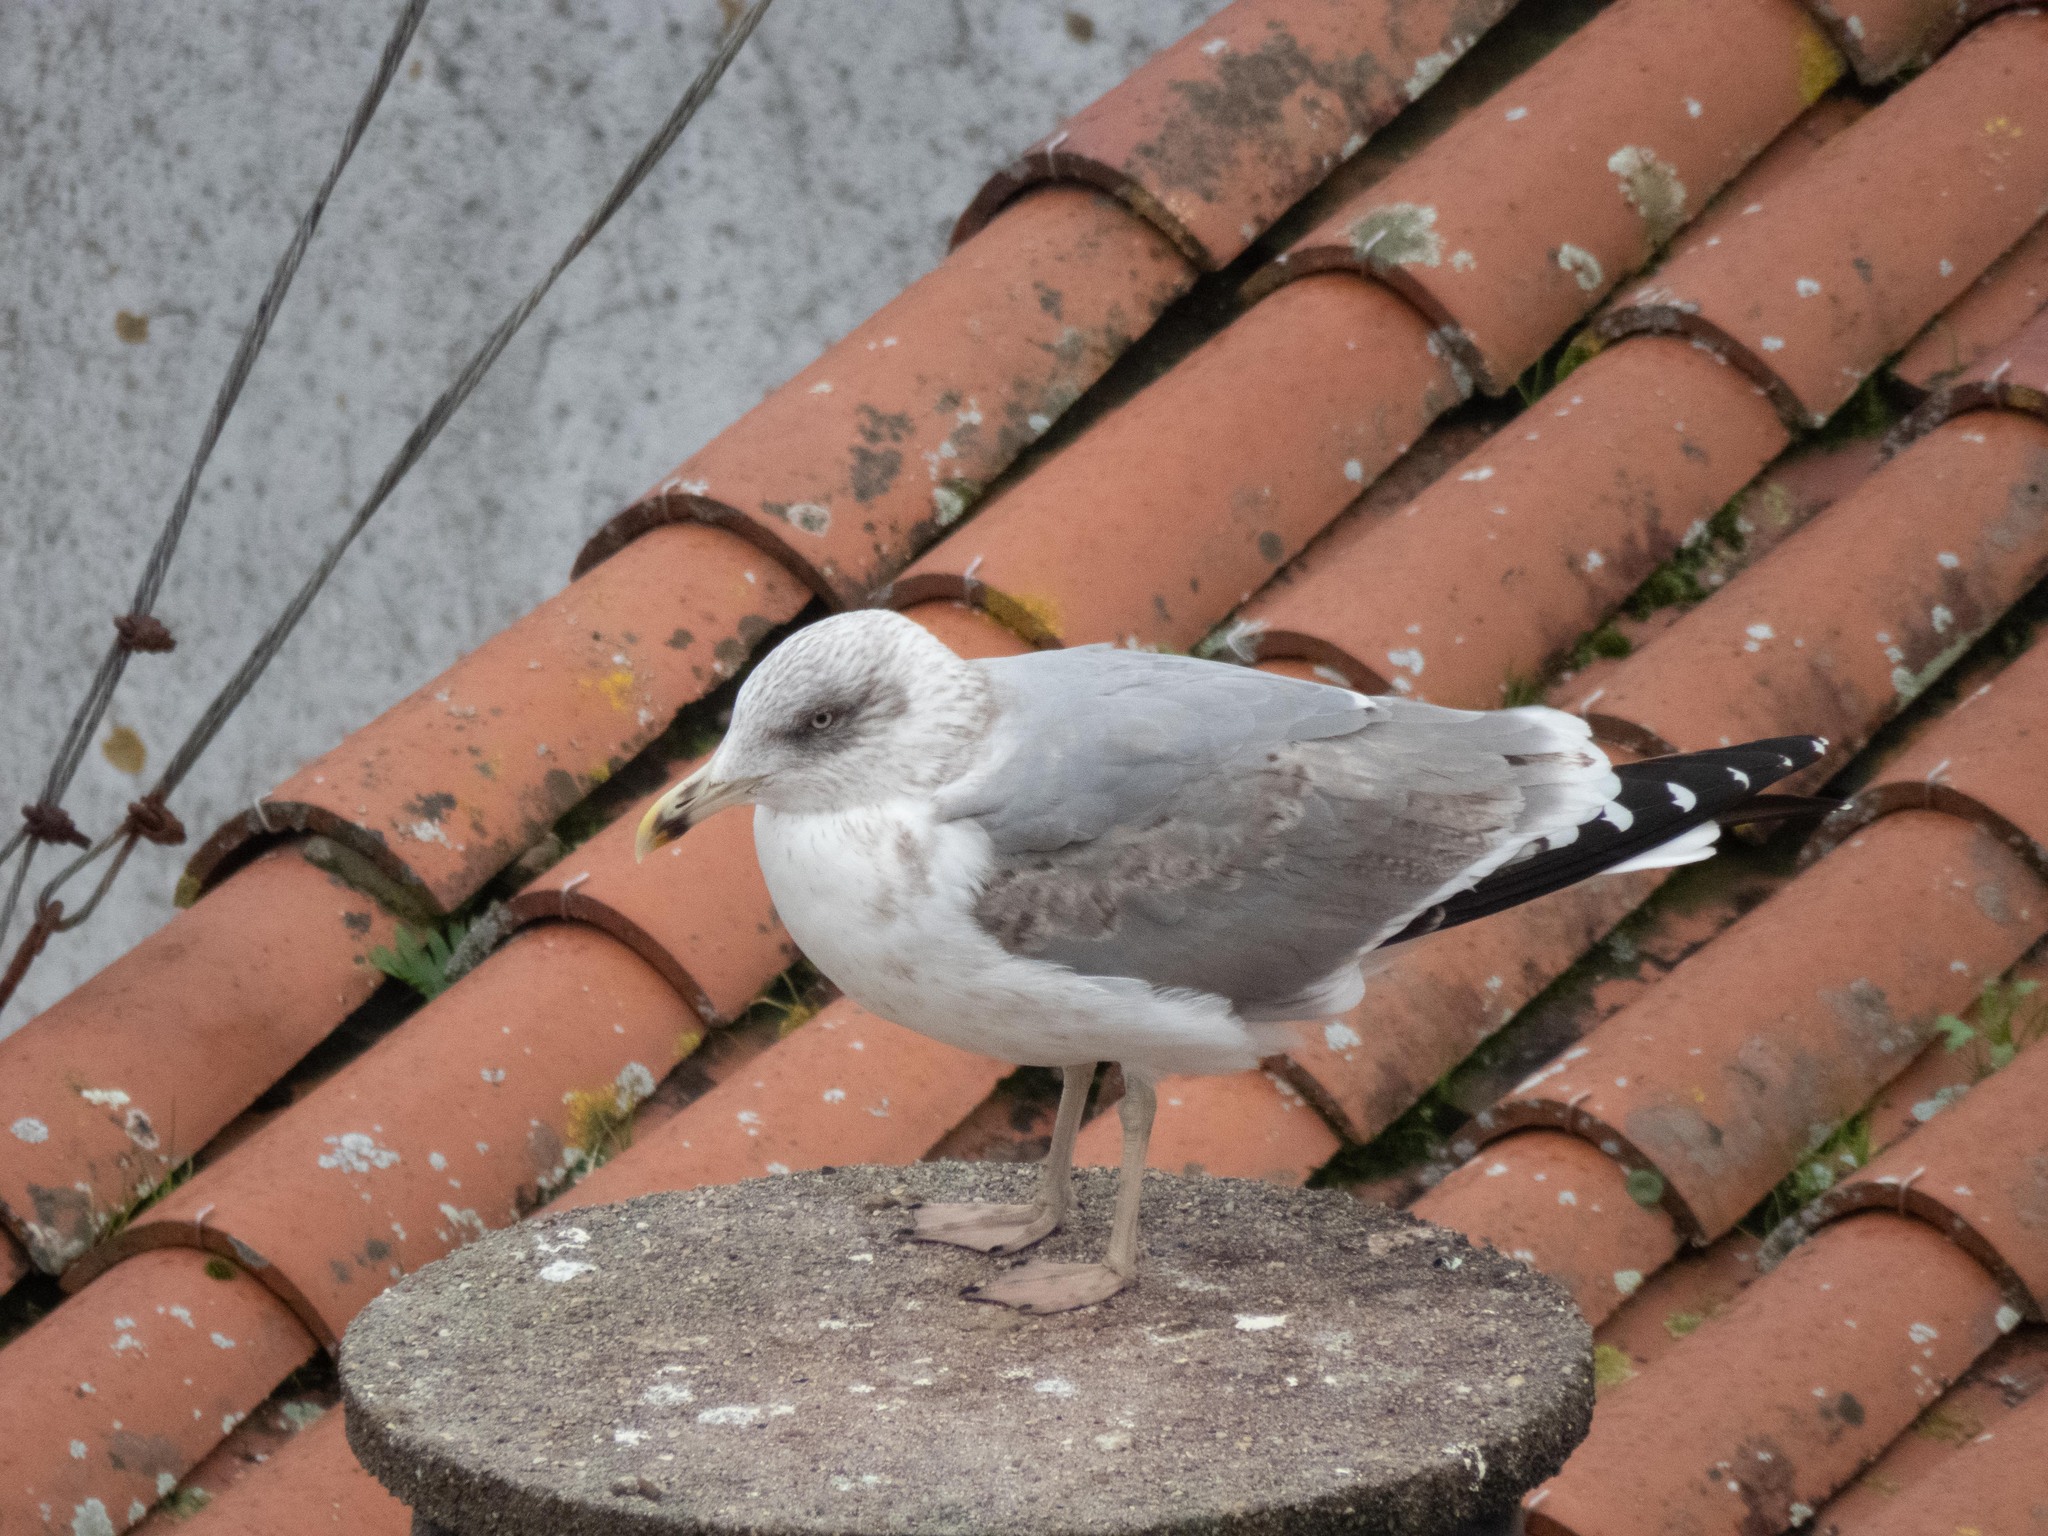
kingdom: Animalia
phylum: Chordata
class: Aves
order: Charadriiformes
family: Laridae
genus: Larus
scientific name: Larus michahellis
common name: Yellow-legged gull
